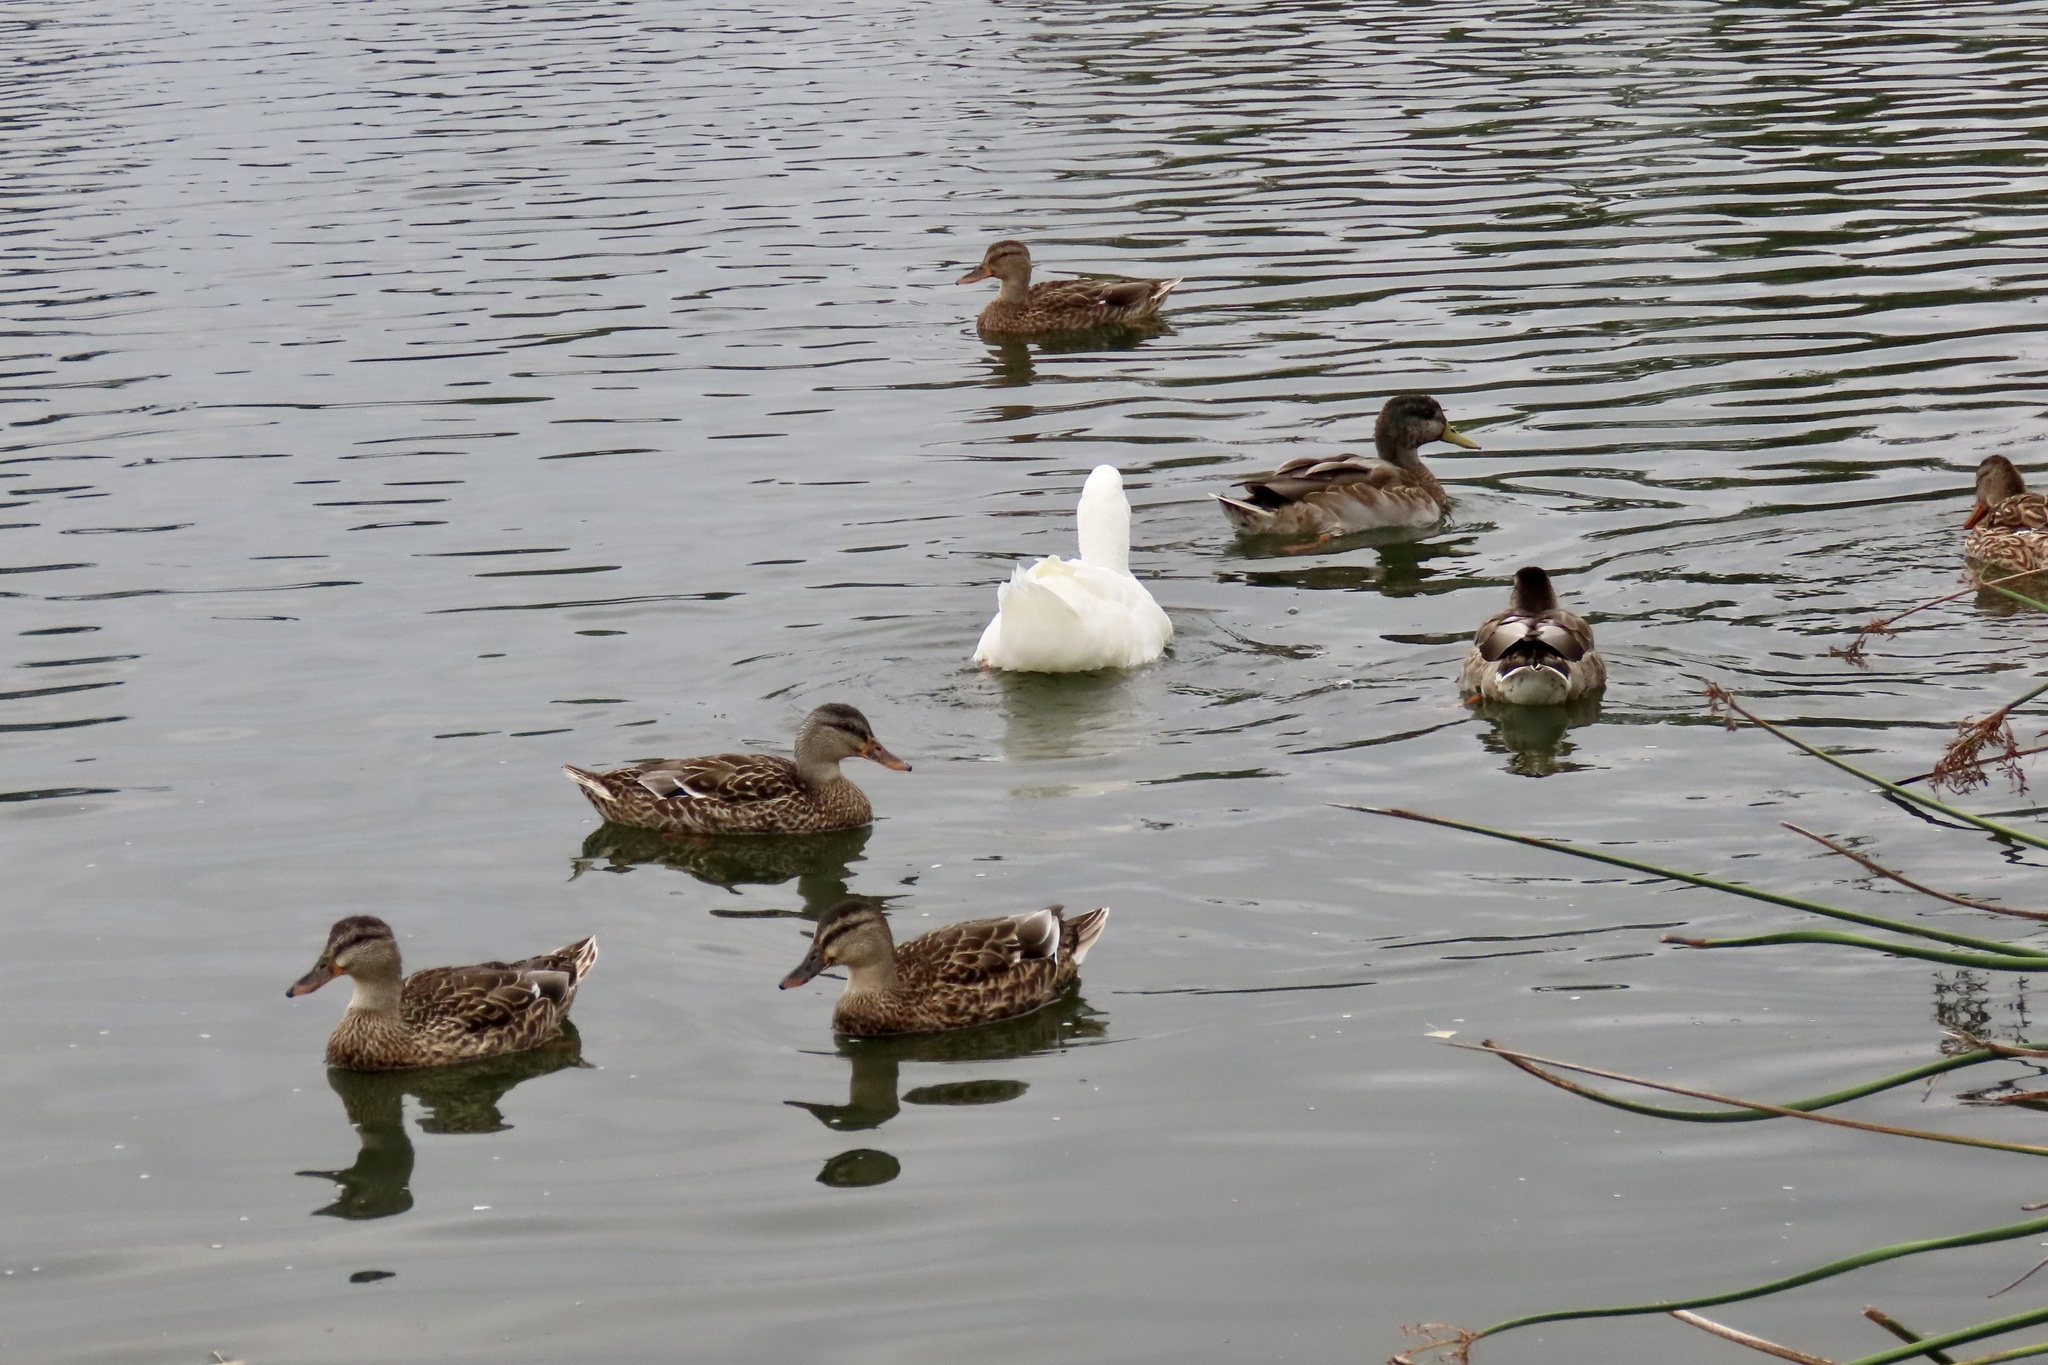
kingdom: Animalia
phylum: Chordata
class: Aves
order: Anseriformes
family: Anatidae
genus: Anas
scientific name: Anas platyrhynchos
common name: Mallard
